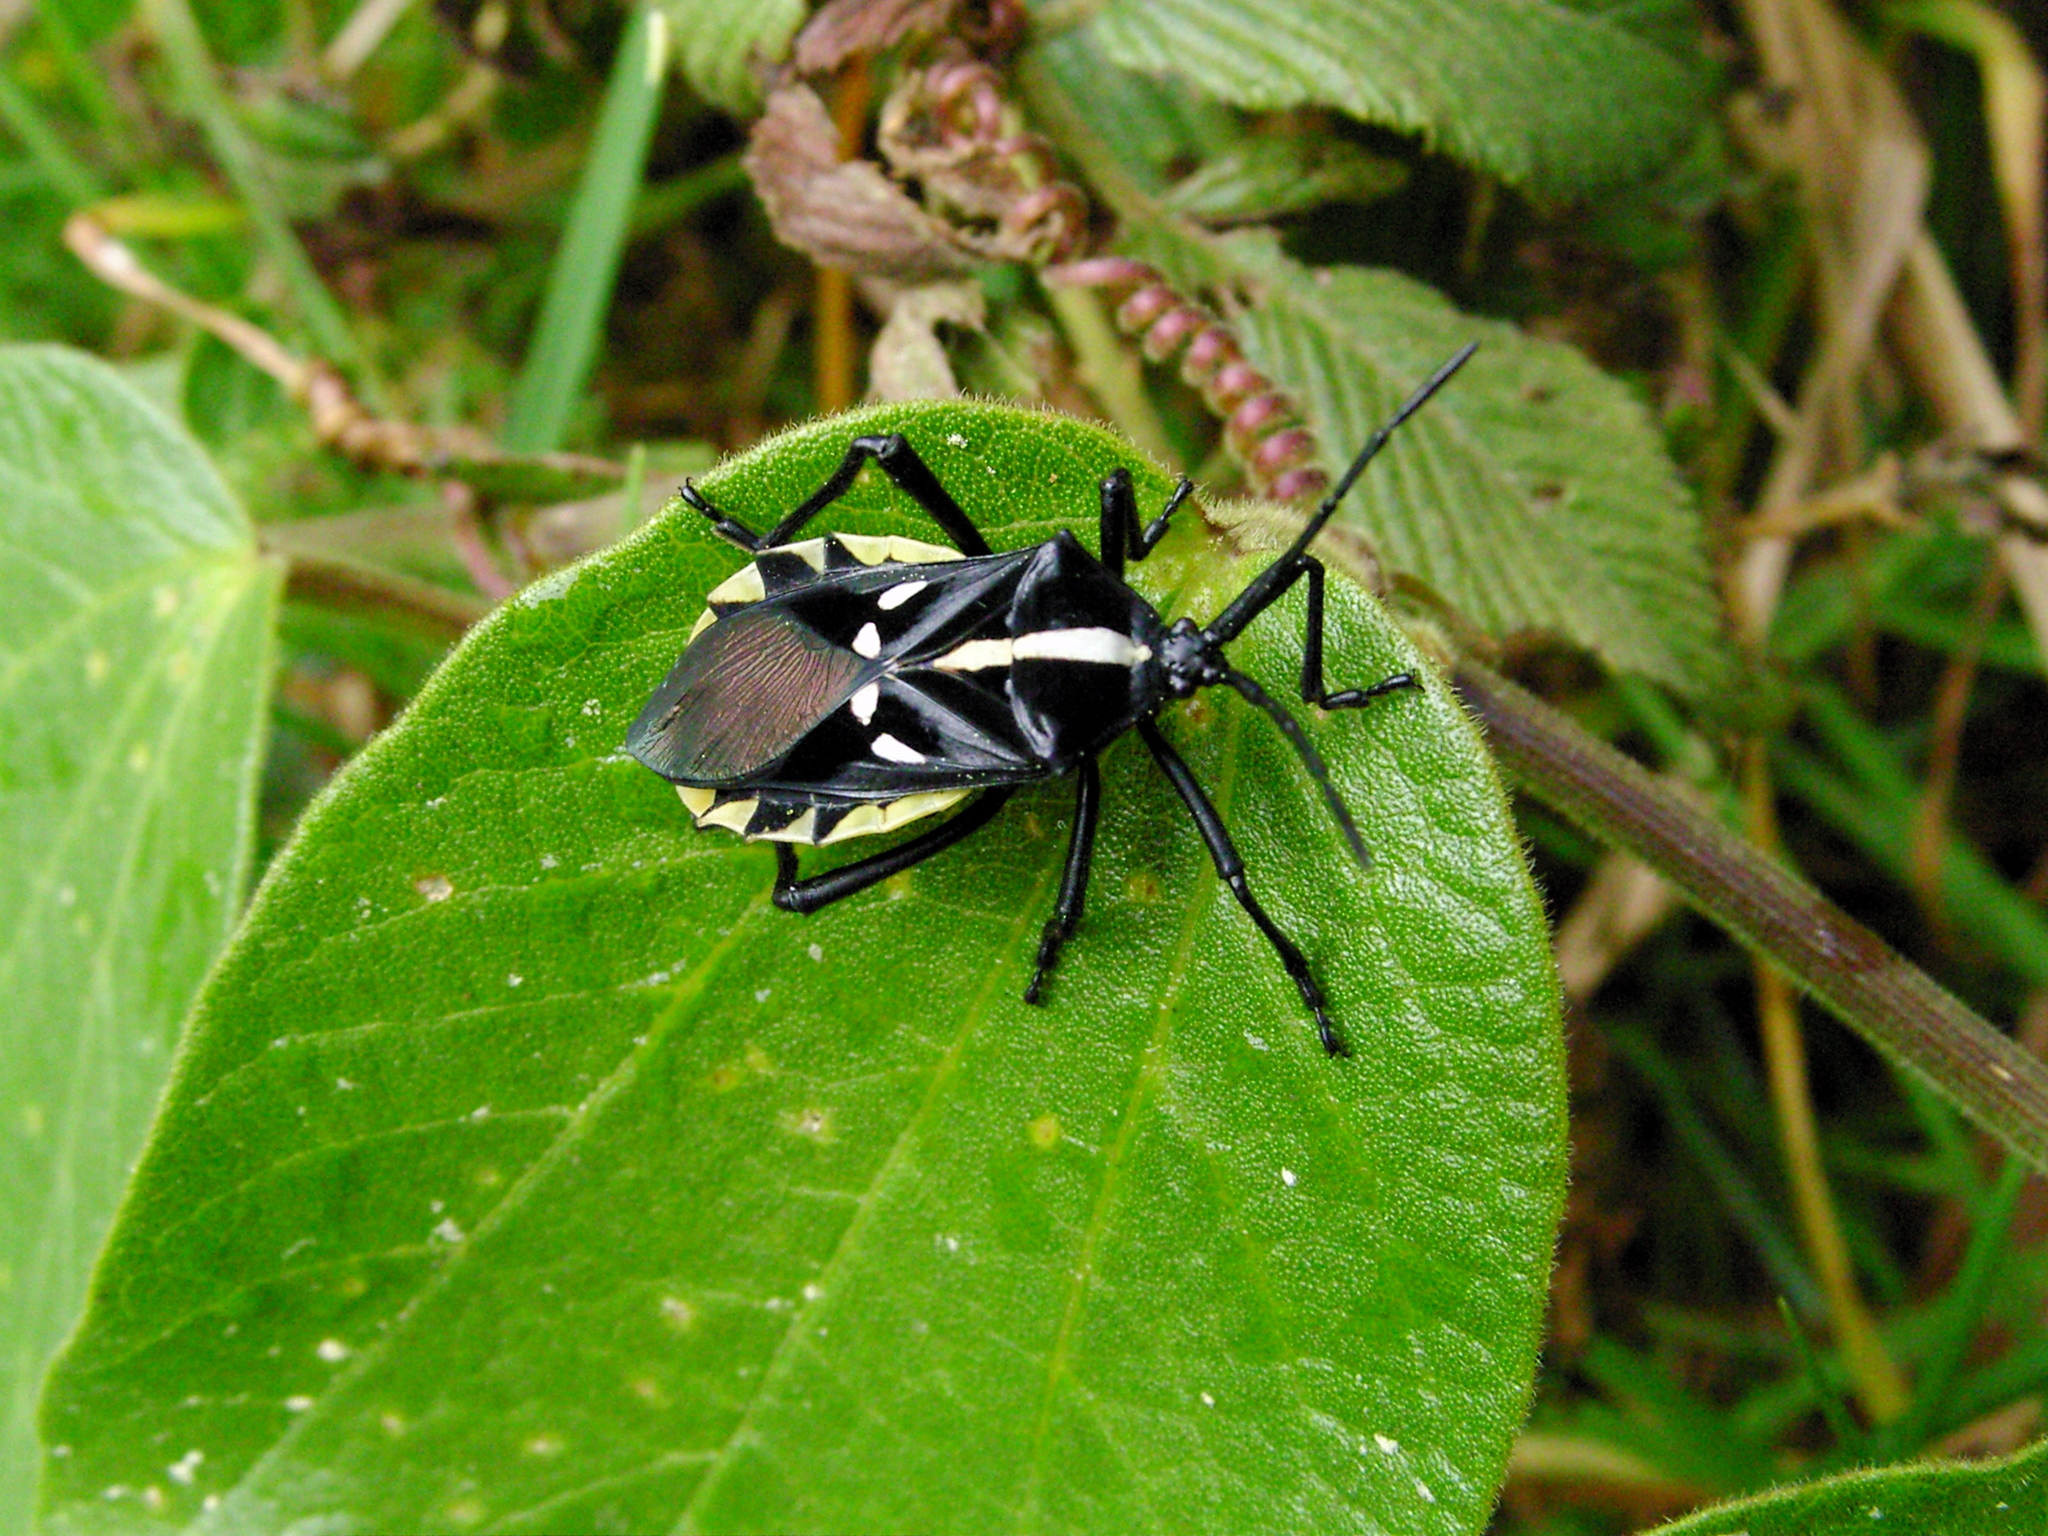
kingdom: Animalia
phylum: Arthropoda
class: Insecta
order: Hemiptera
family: Coreidae
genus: Curtius
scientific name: Curtius marginalis
